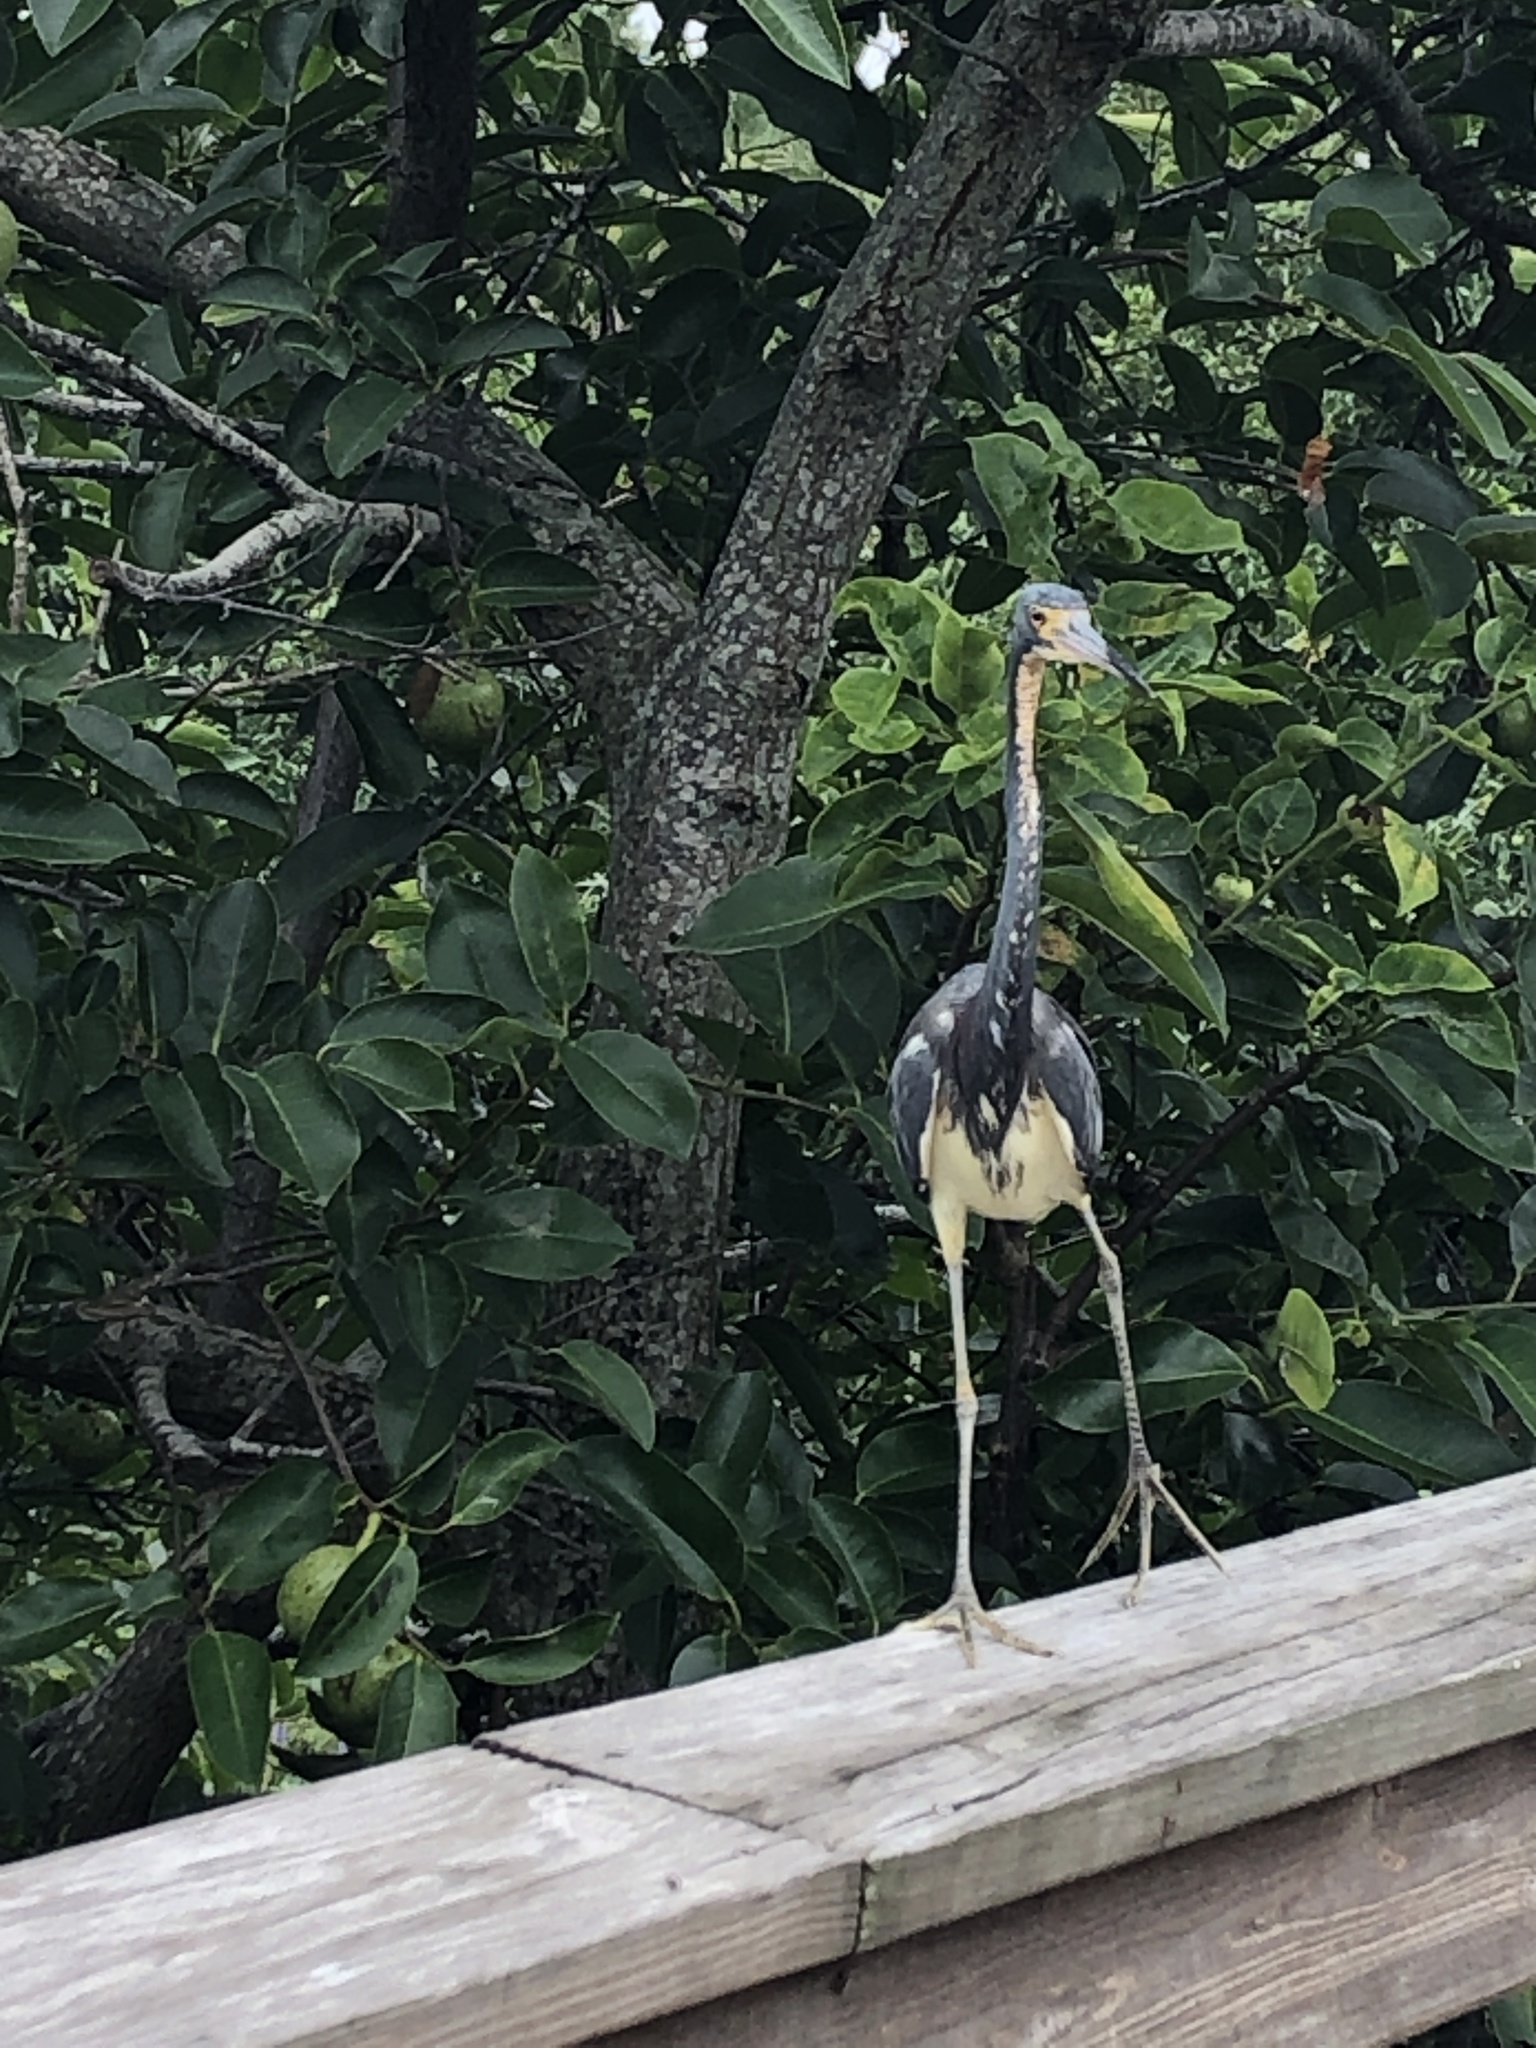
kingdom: Animalia
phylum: Chordata
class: Aves
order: Pelecaniformes
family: Ardeidae
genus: Egretta
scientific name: Egretta tricolor
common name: Tricolored heron
